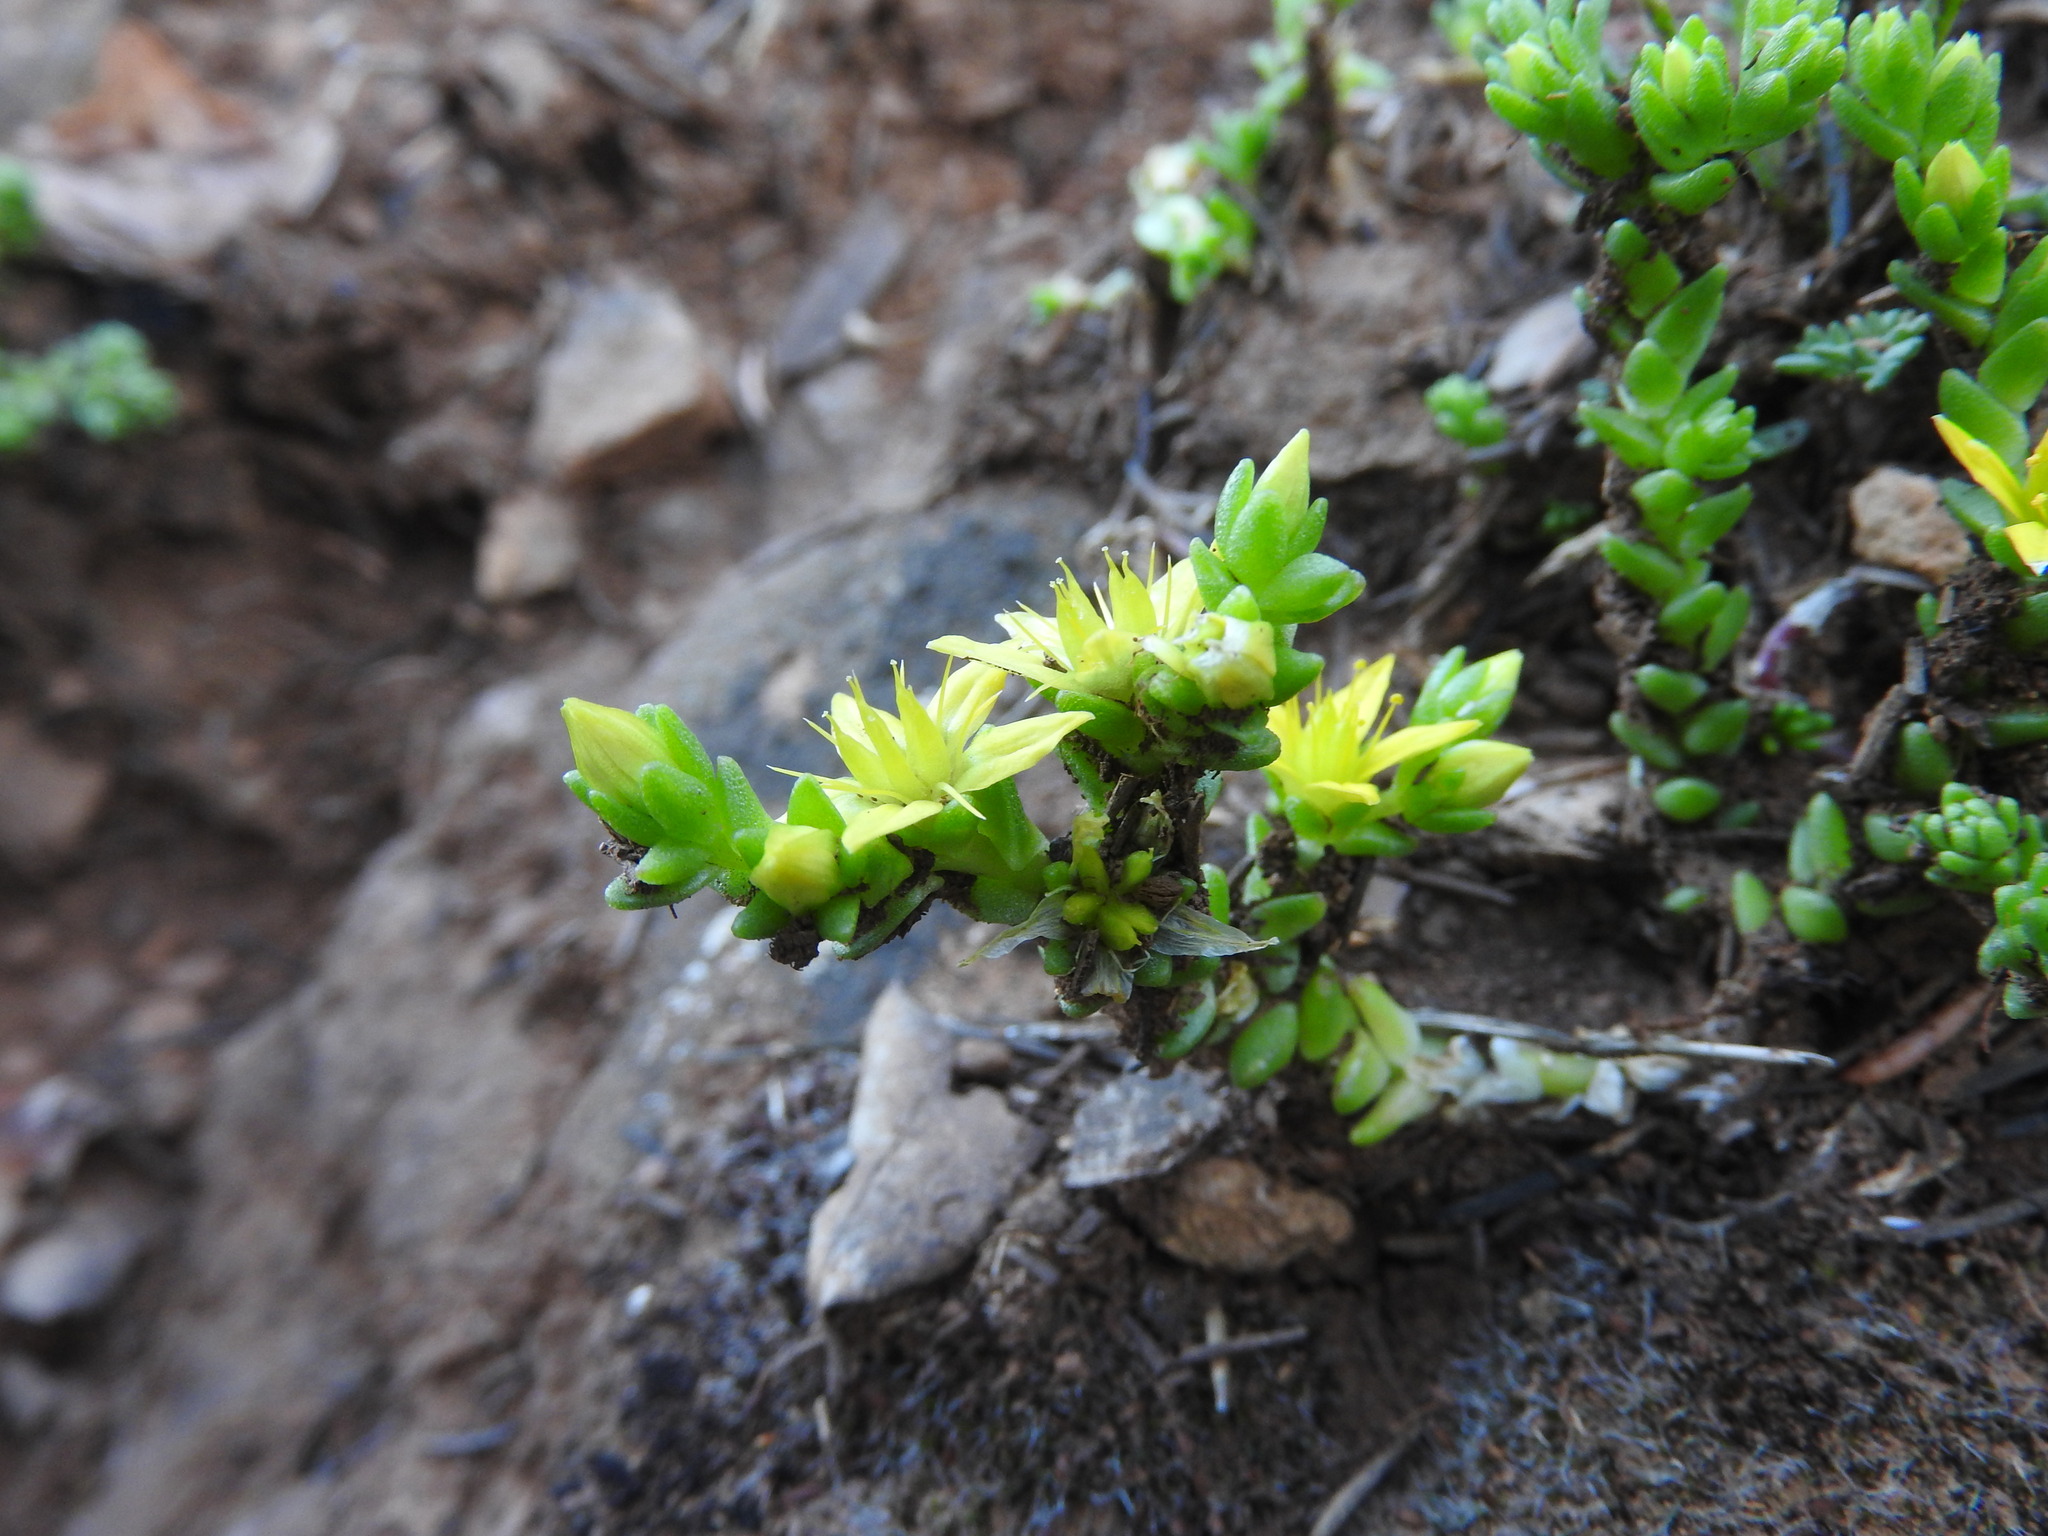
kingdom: Plantae
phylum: Tracheophyta
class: Magnoliopsida
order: Saxifragales
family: Crassulaceae
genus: Sedum
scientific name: Sedum acre
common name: Biting stonecrop
